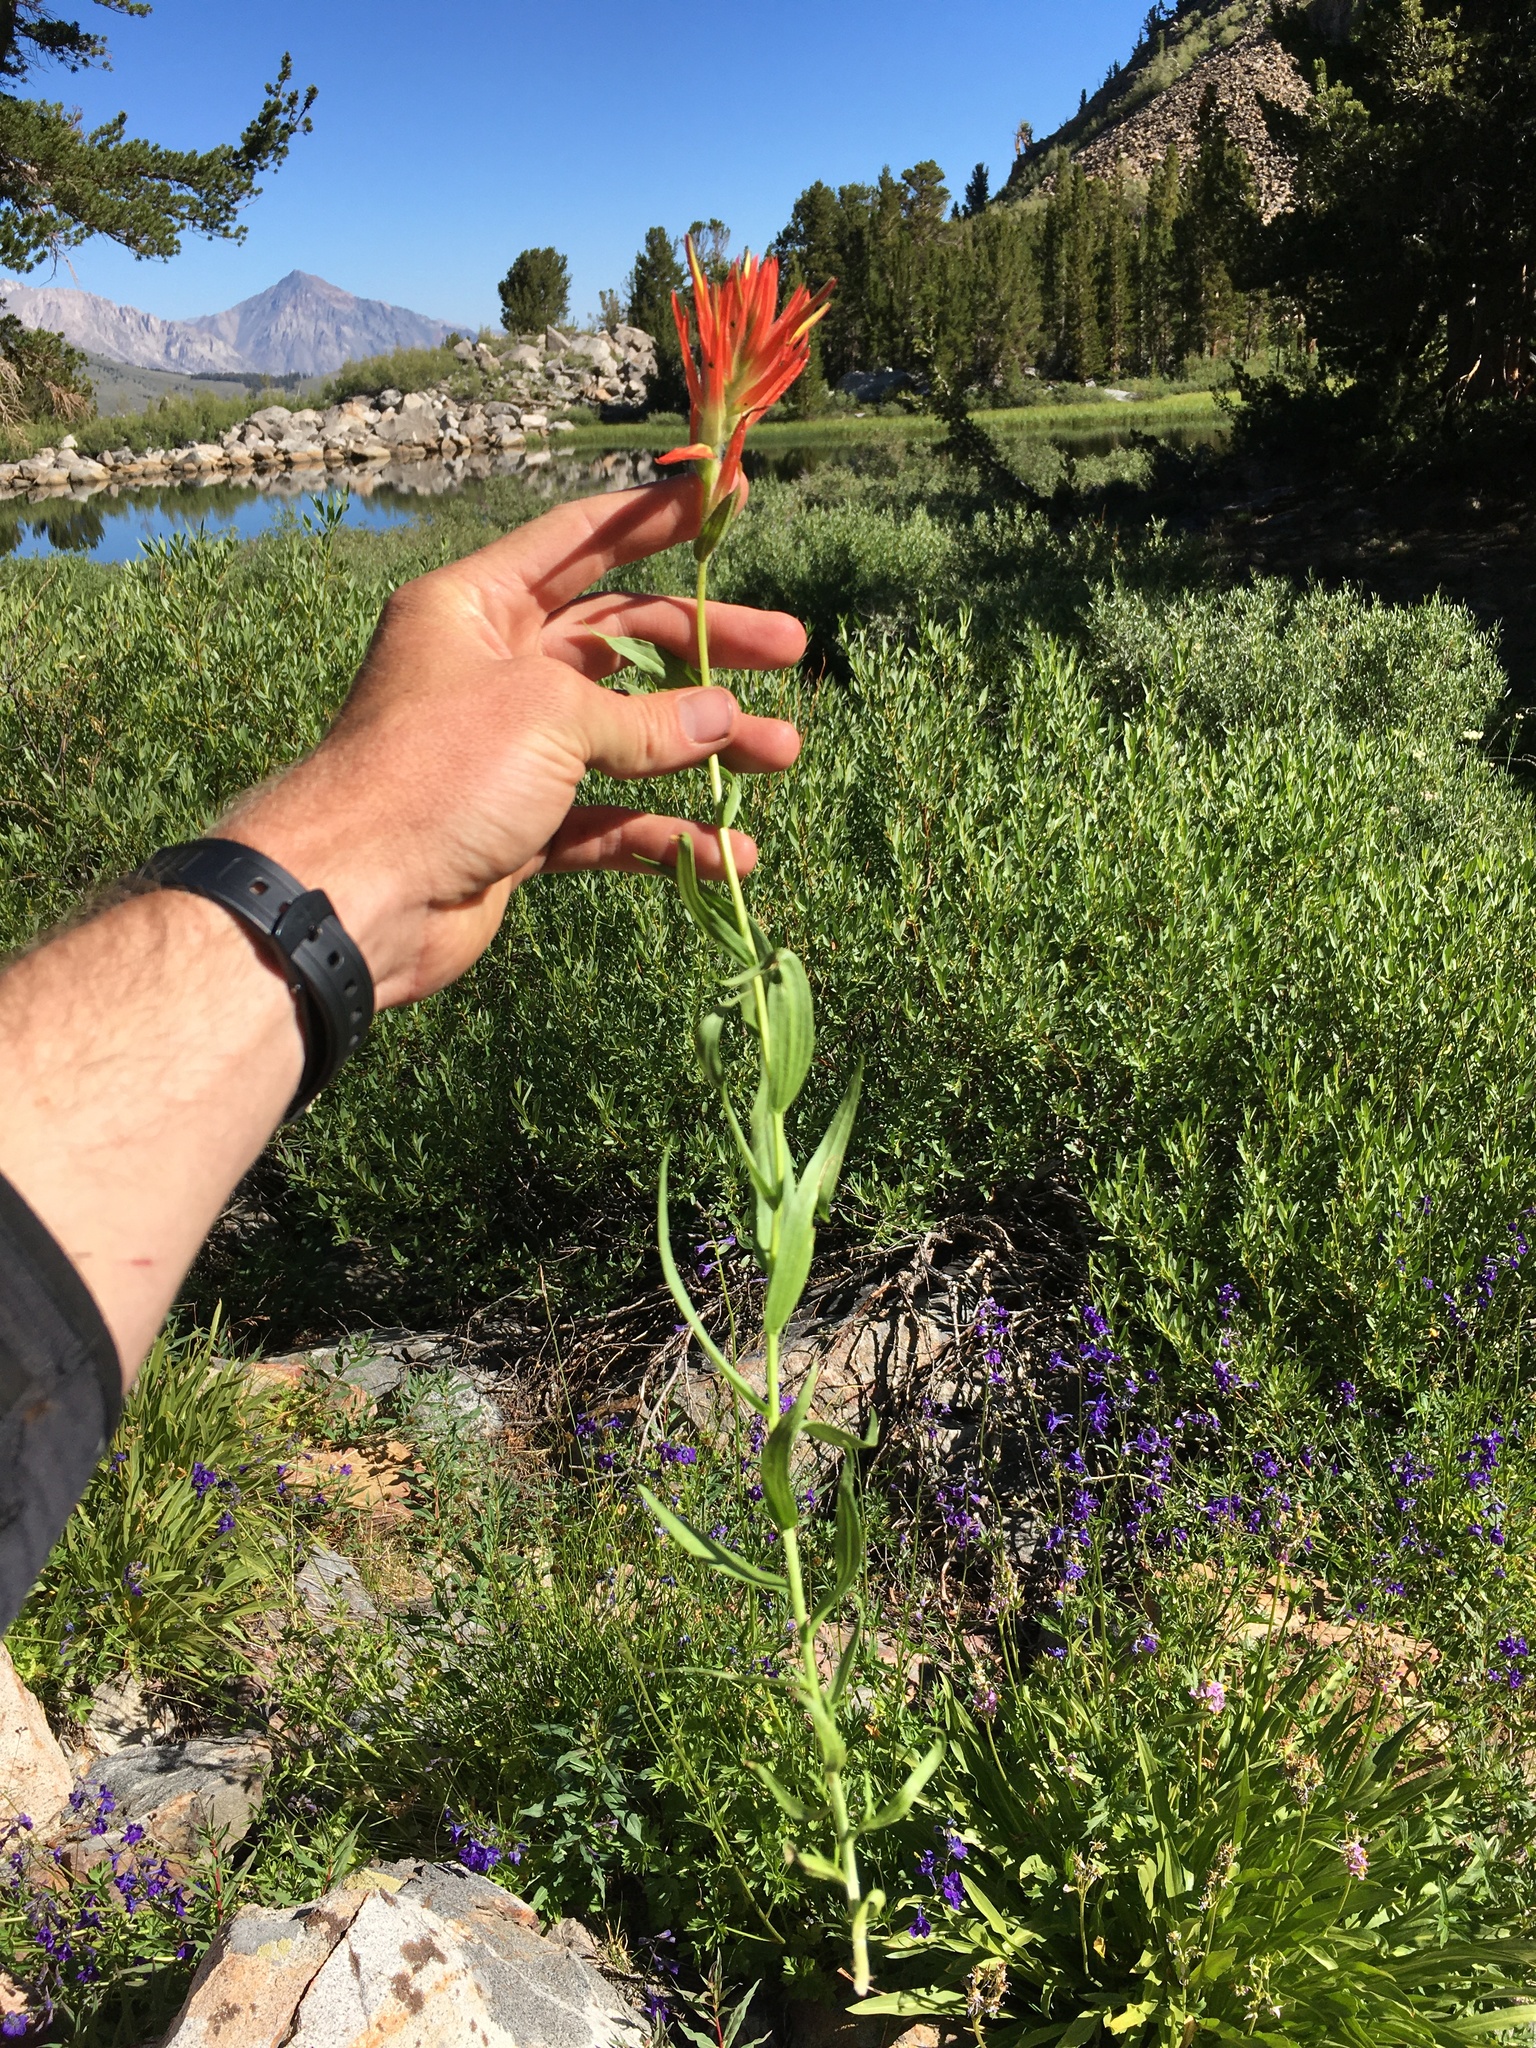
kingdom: Plantae
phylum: Tracheophyta
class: Magnoliopsida
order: Lamiales
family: Orobanchaceae
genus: Castilleja
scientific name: Castilleja miniata
